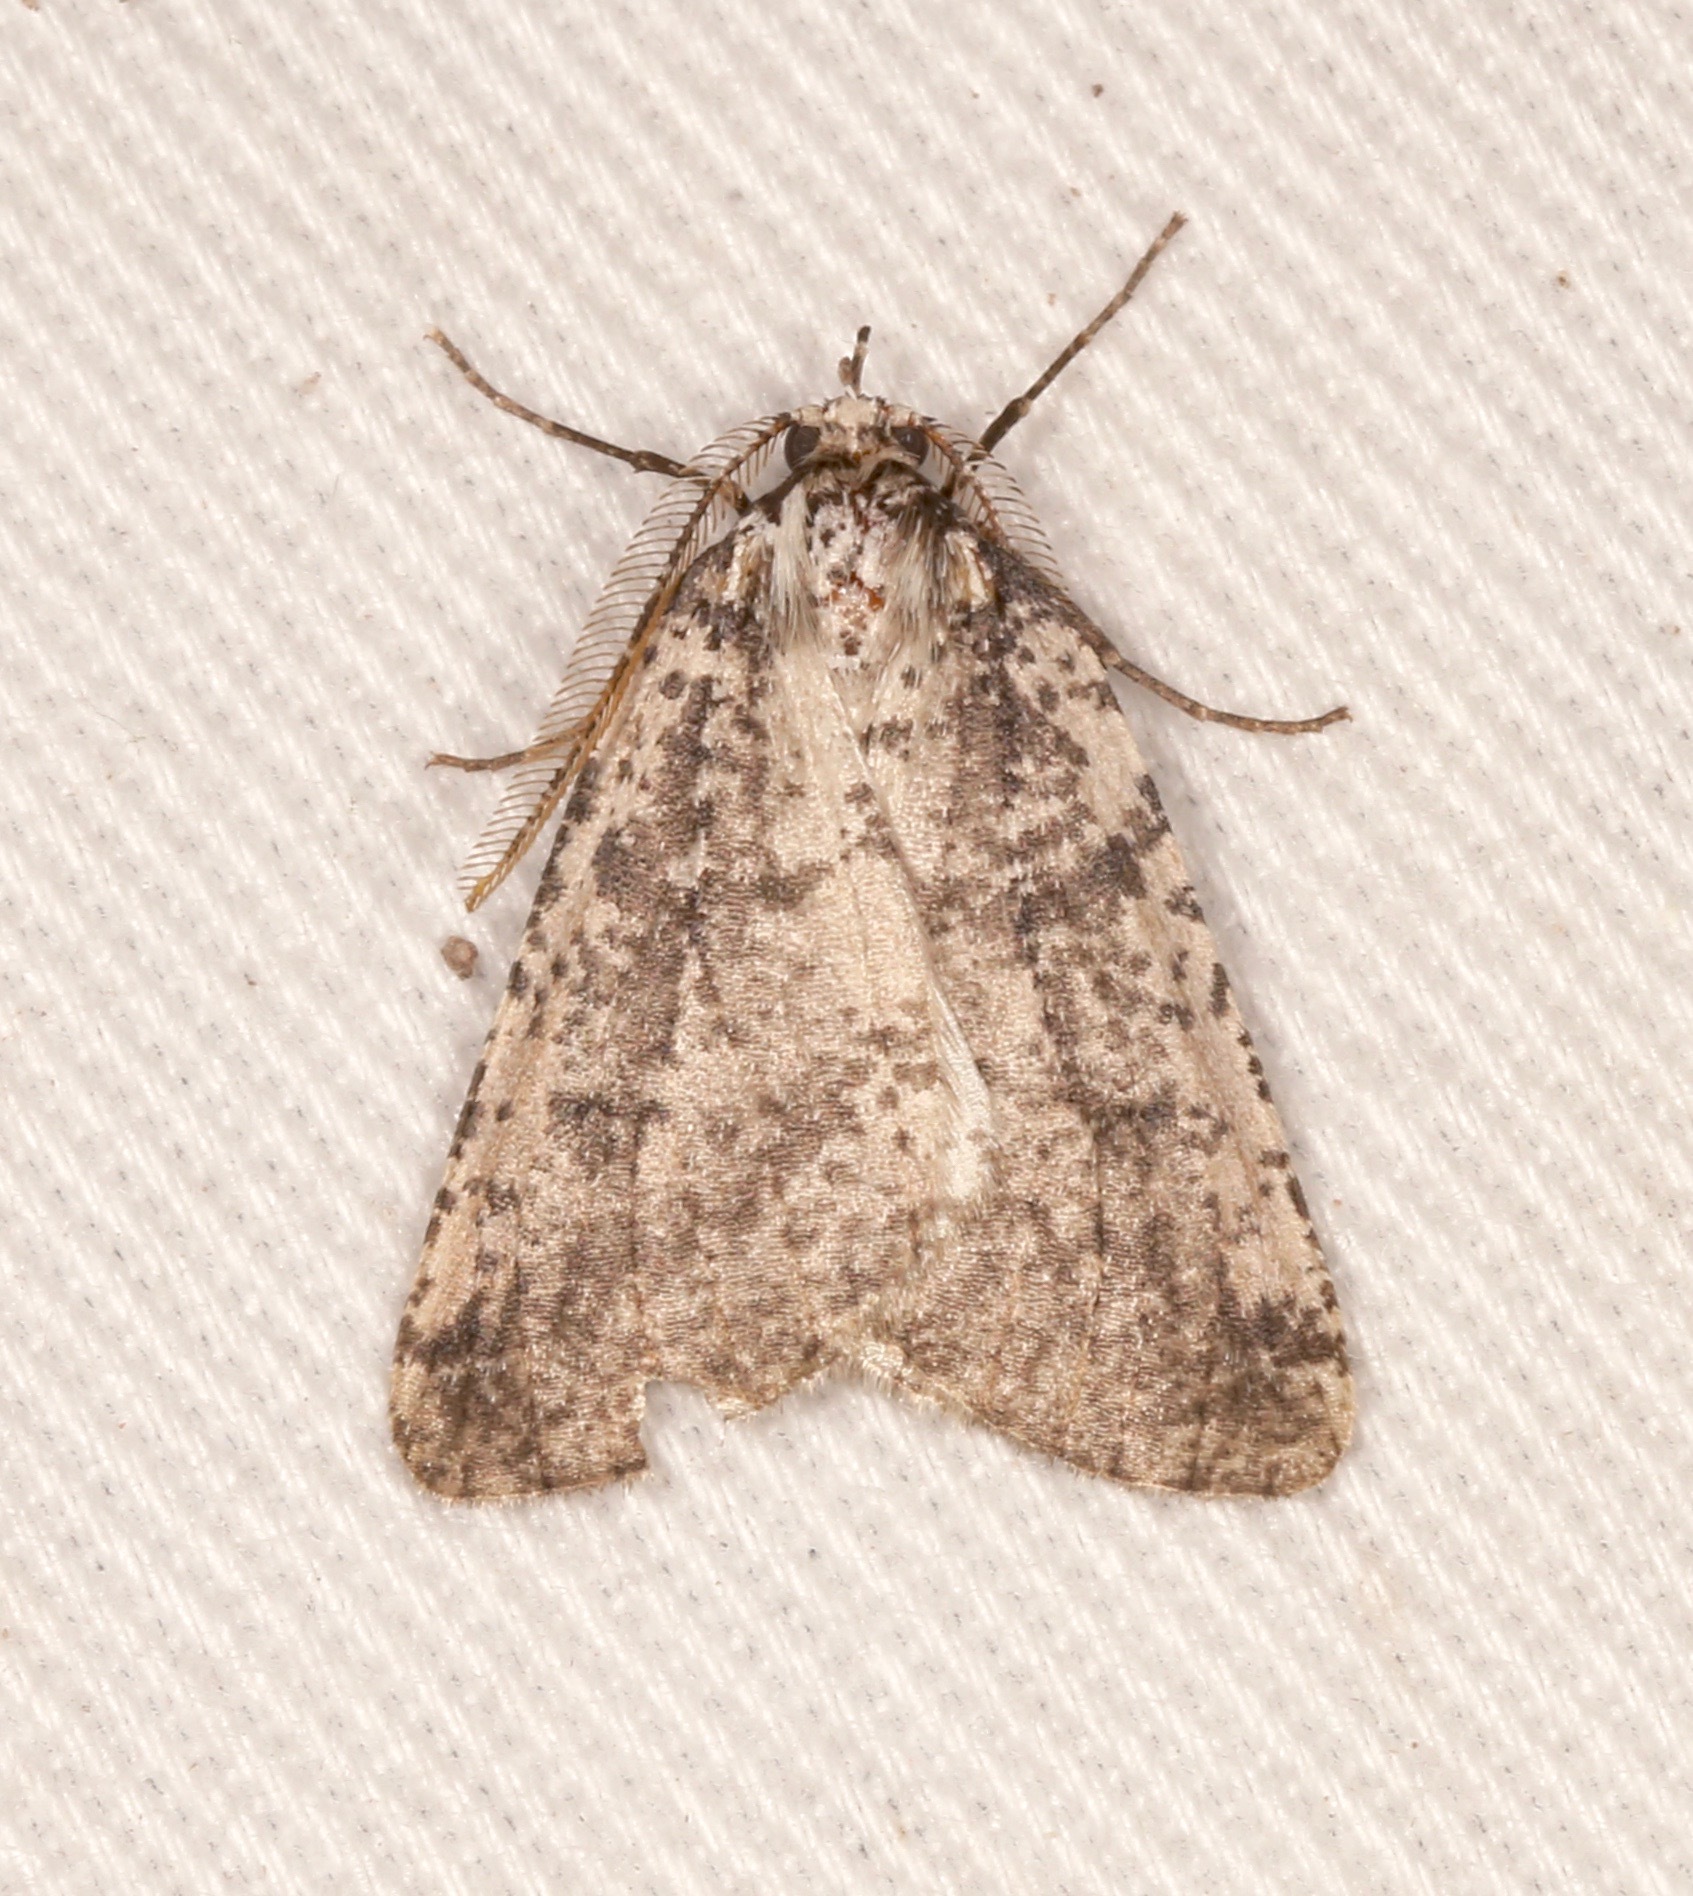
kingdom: Animalia
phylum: Arthropoda
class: Insecta
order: Lepidoptera
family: Geometridae
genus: Eucaterva
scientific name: Eucaterva variaria
